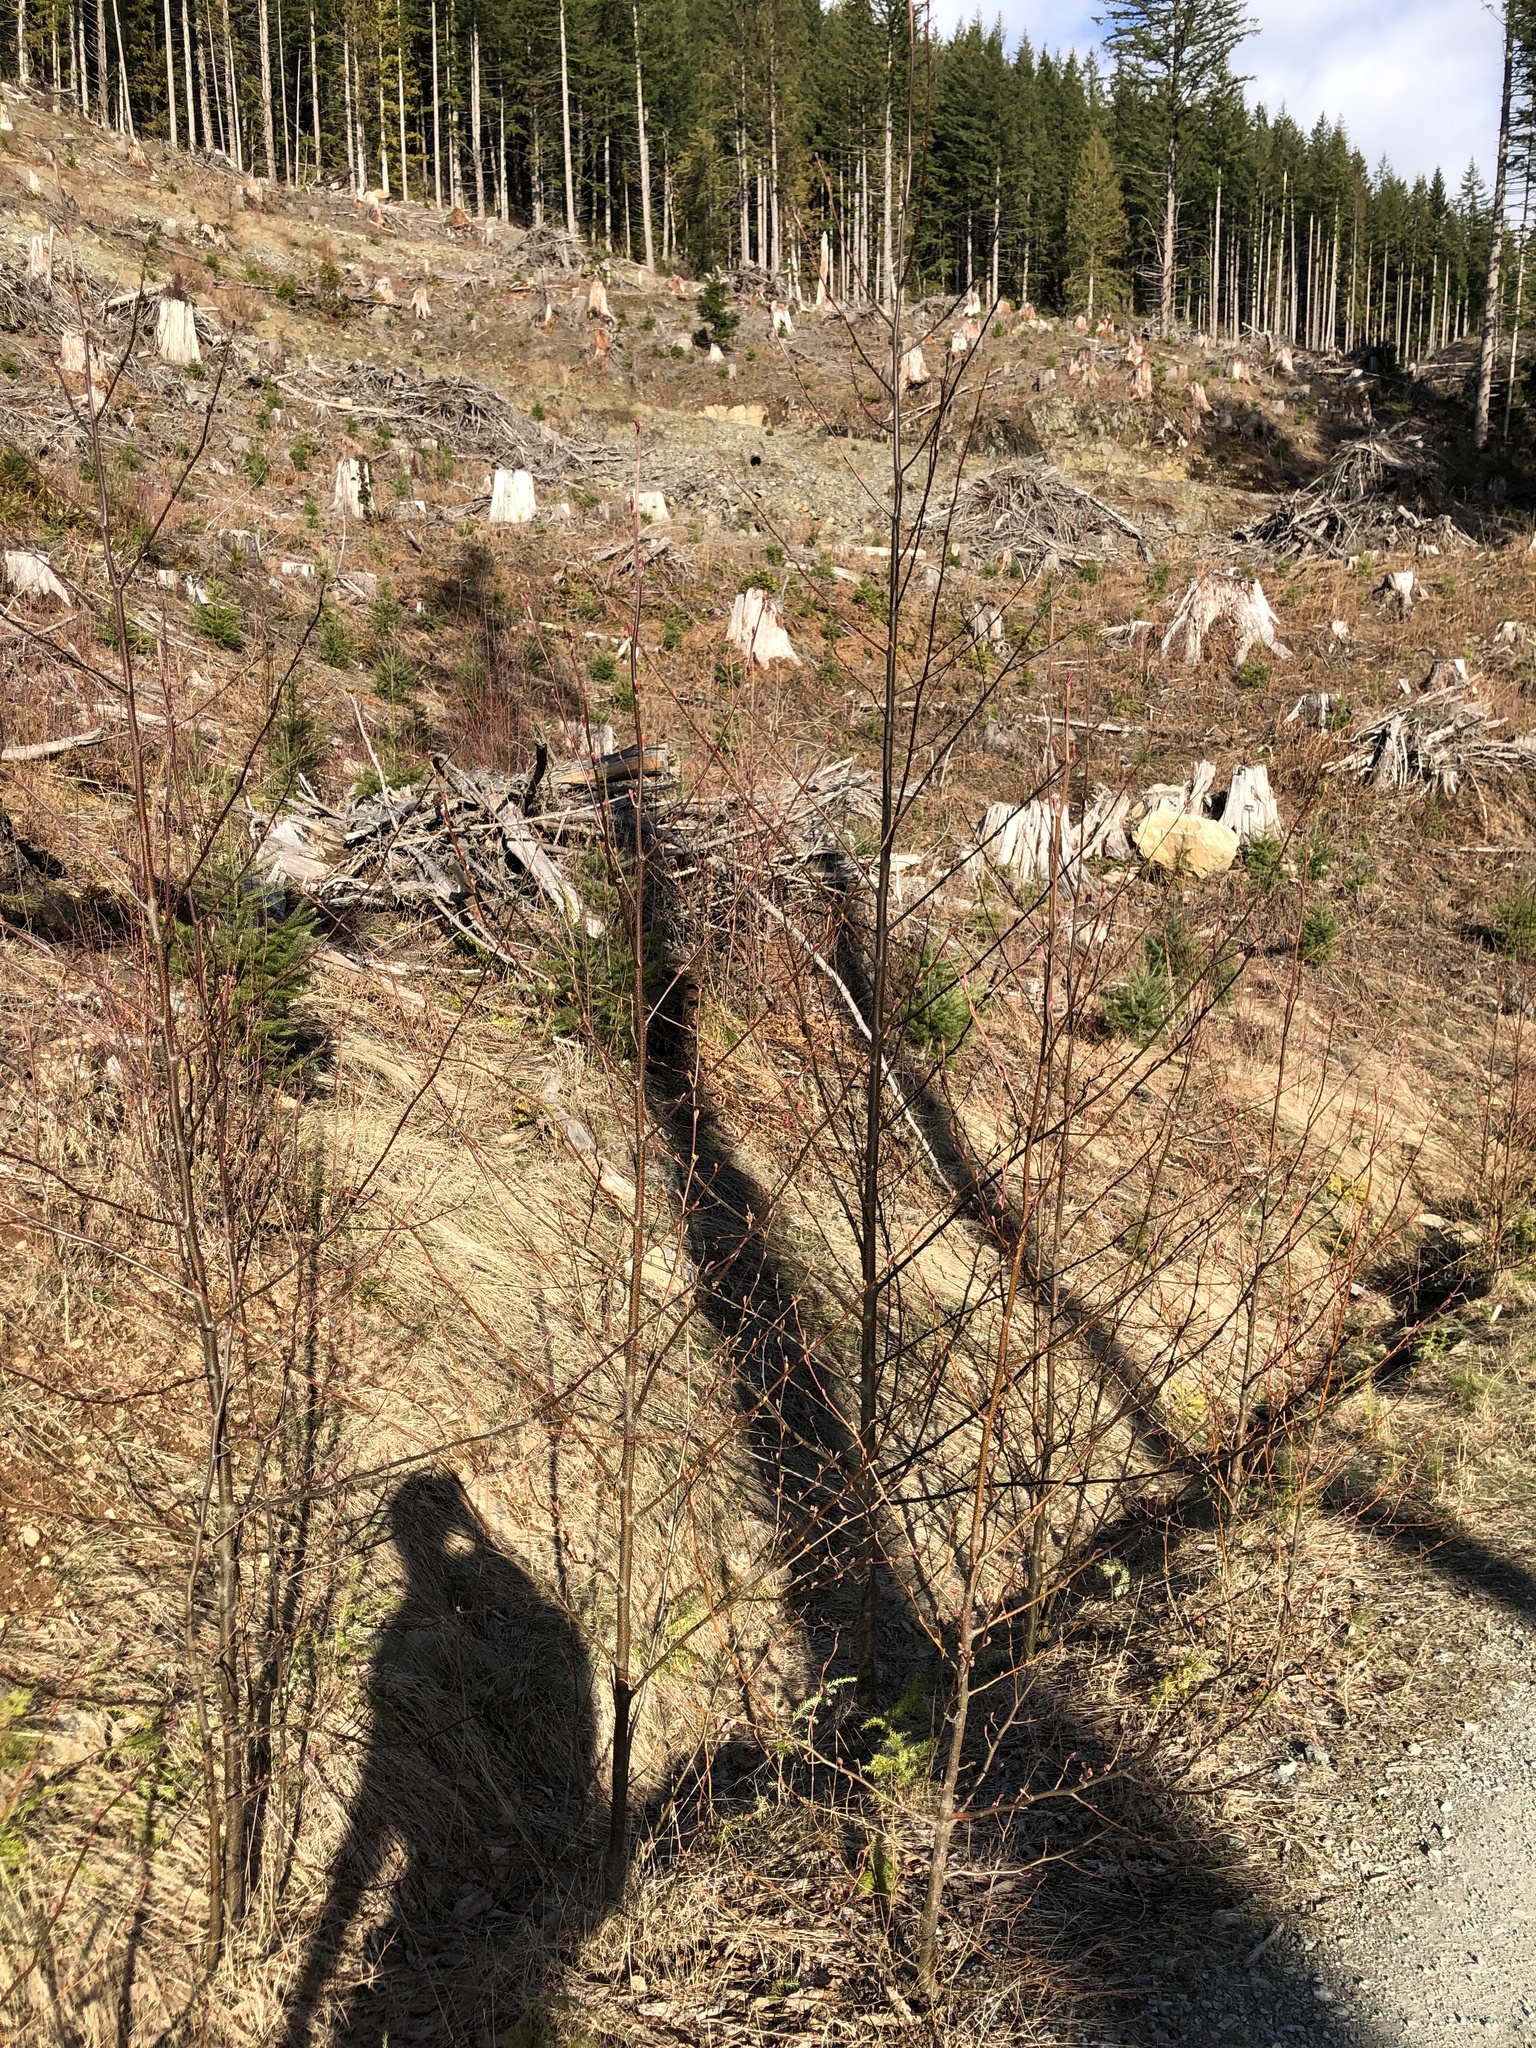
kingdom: Plantae
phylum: Tracheophyta
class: Magnoliopsida
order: Fagales
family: Betulaceae
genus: Alnus
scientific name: Alnus rubra
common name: Red alder
